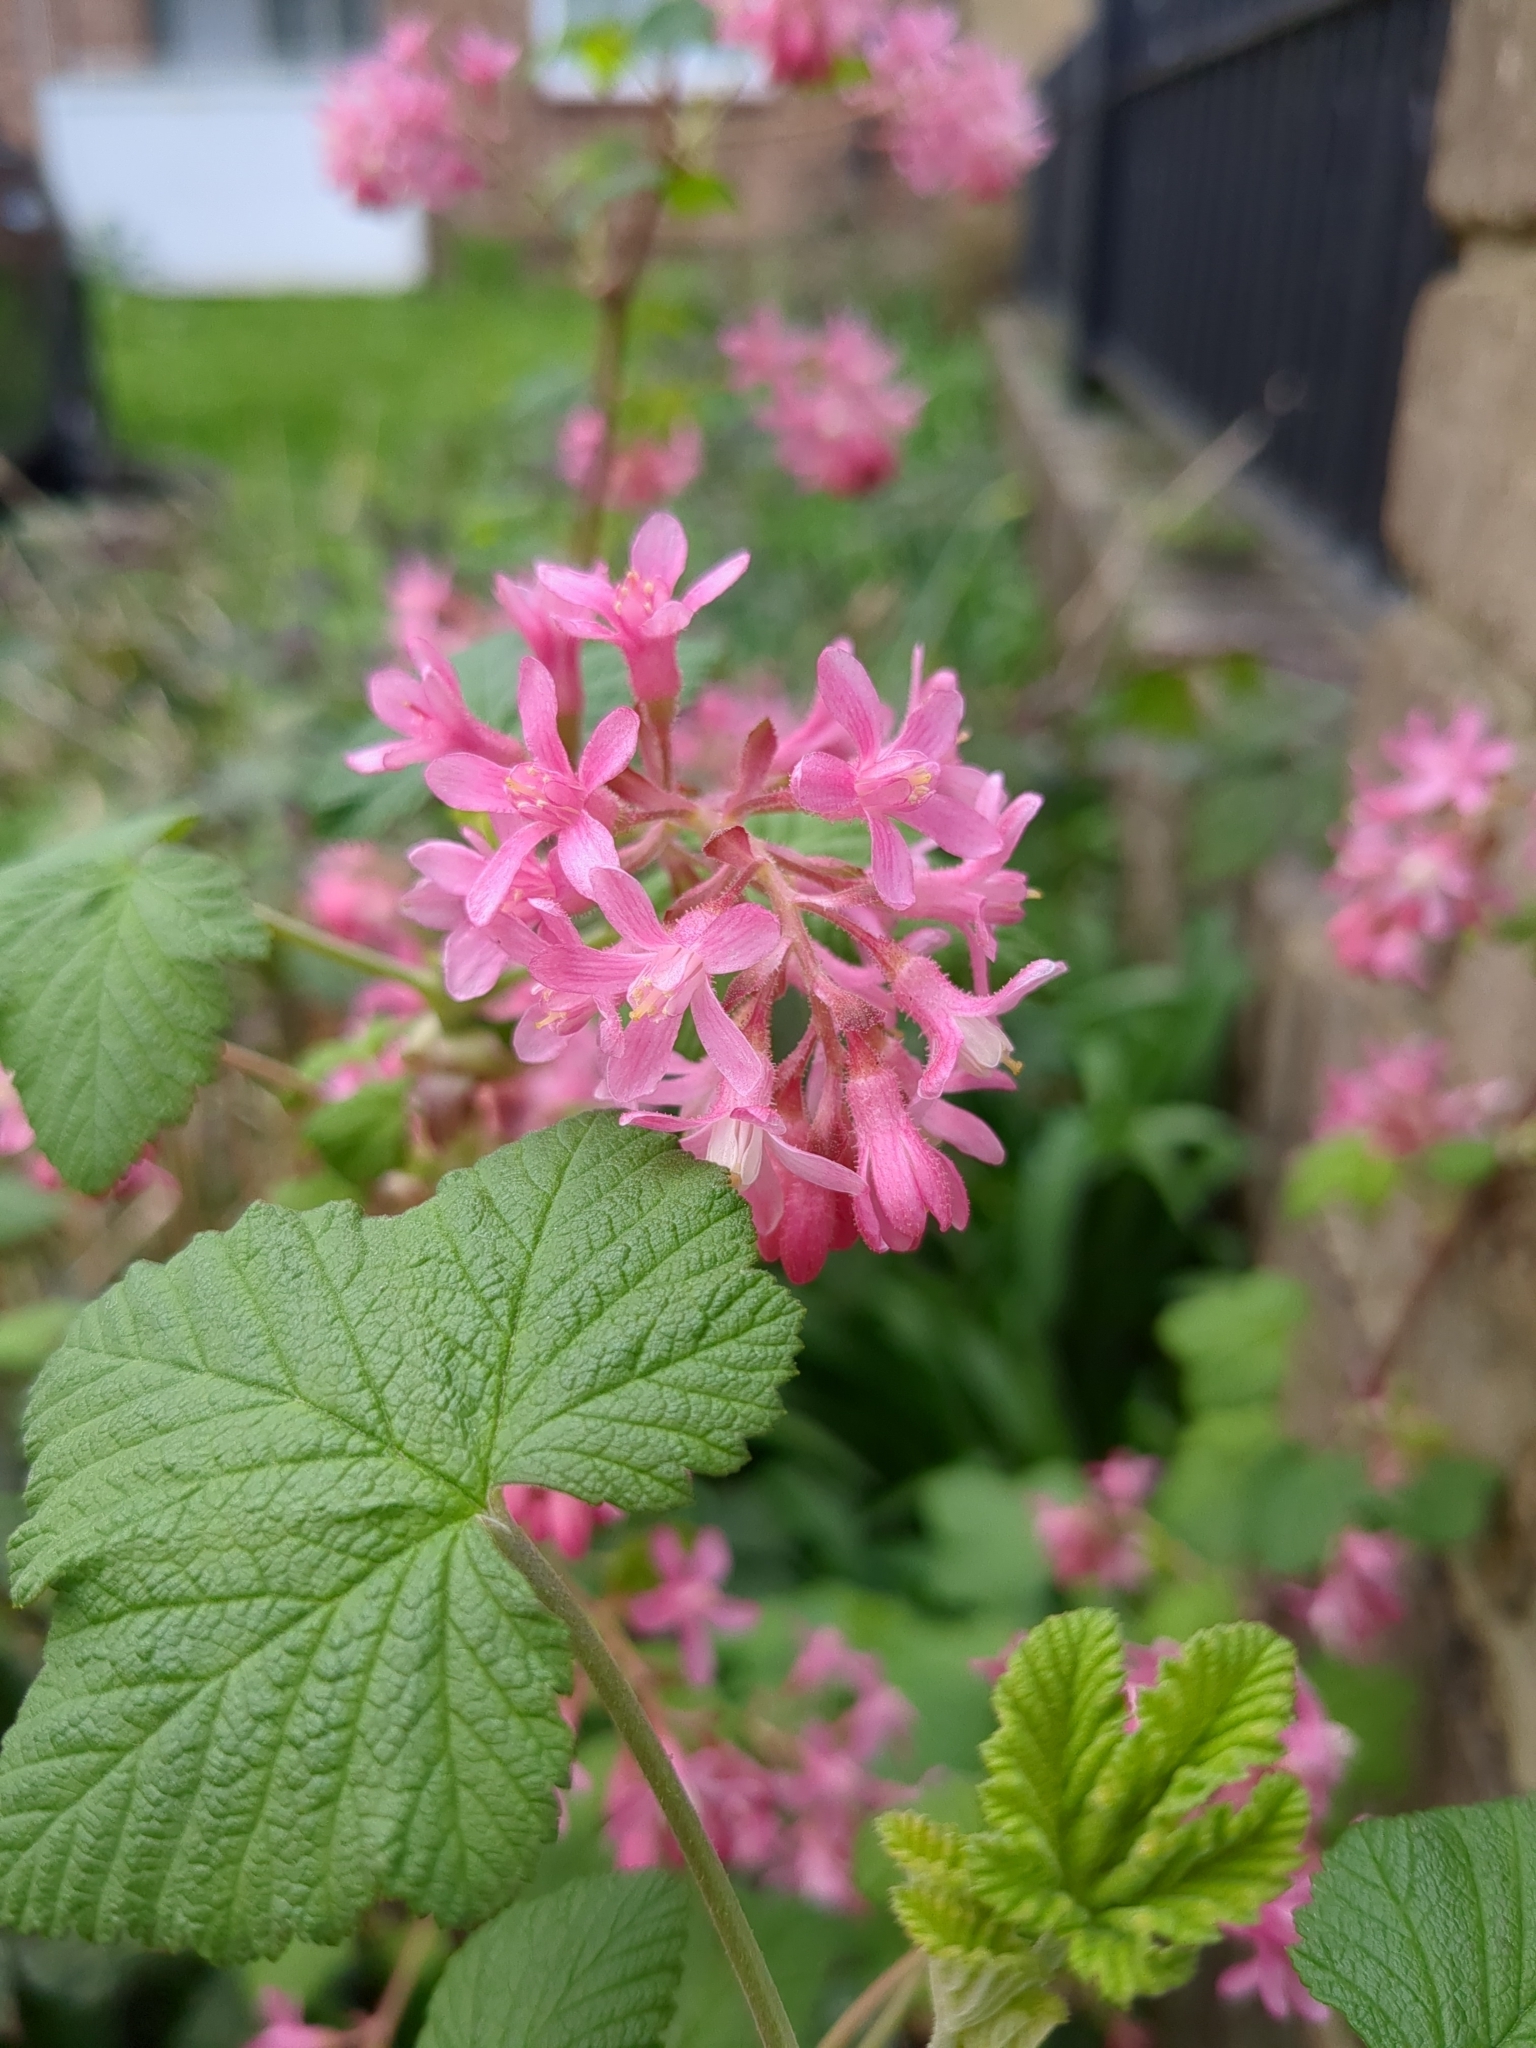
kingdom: Plantae
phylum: Tracheophyta
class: Magnoliopsida
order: Saxifragales
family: Grossulariaceae
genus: Ribes
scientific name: Ribes sanguineum
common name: Flowering currant
